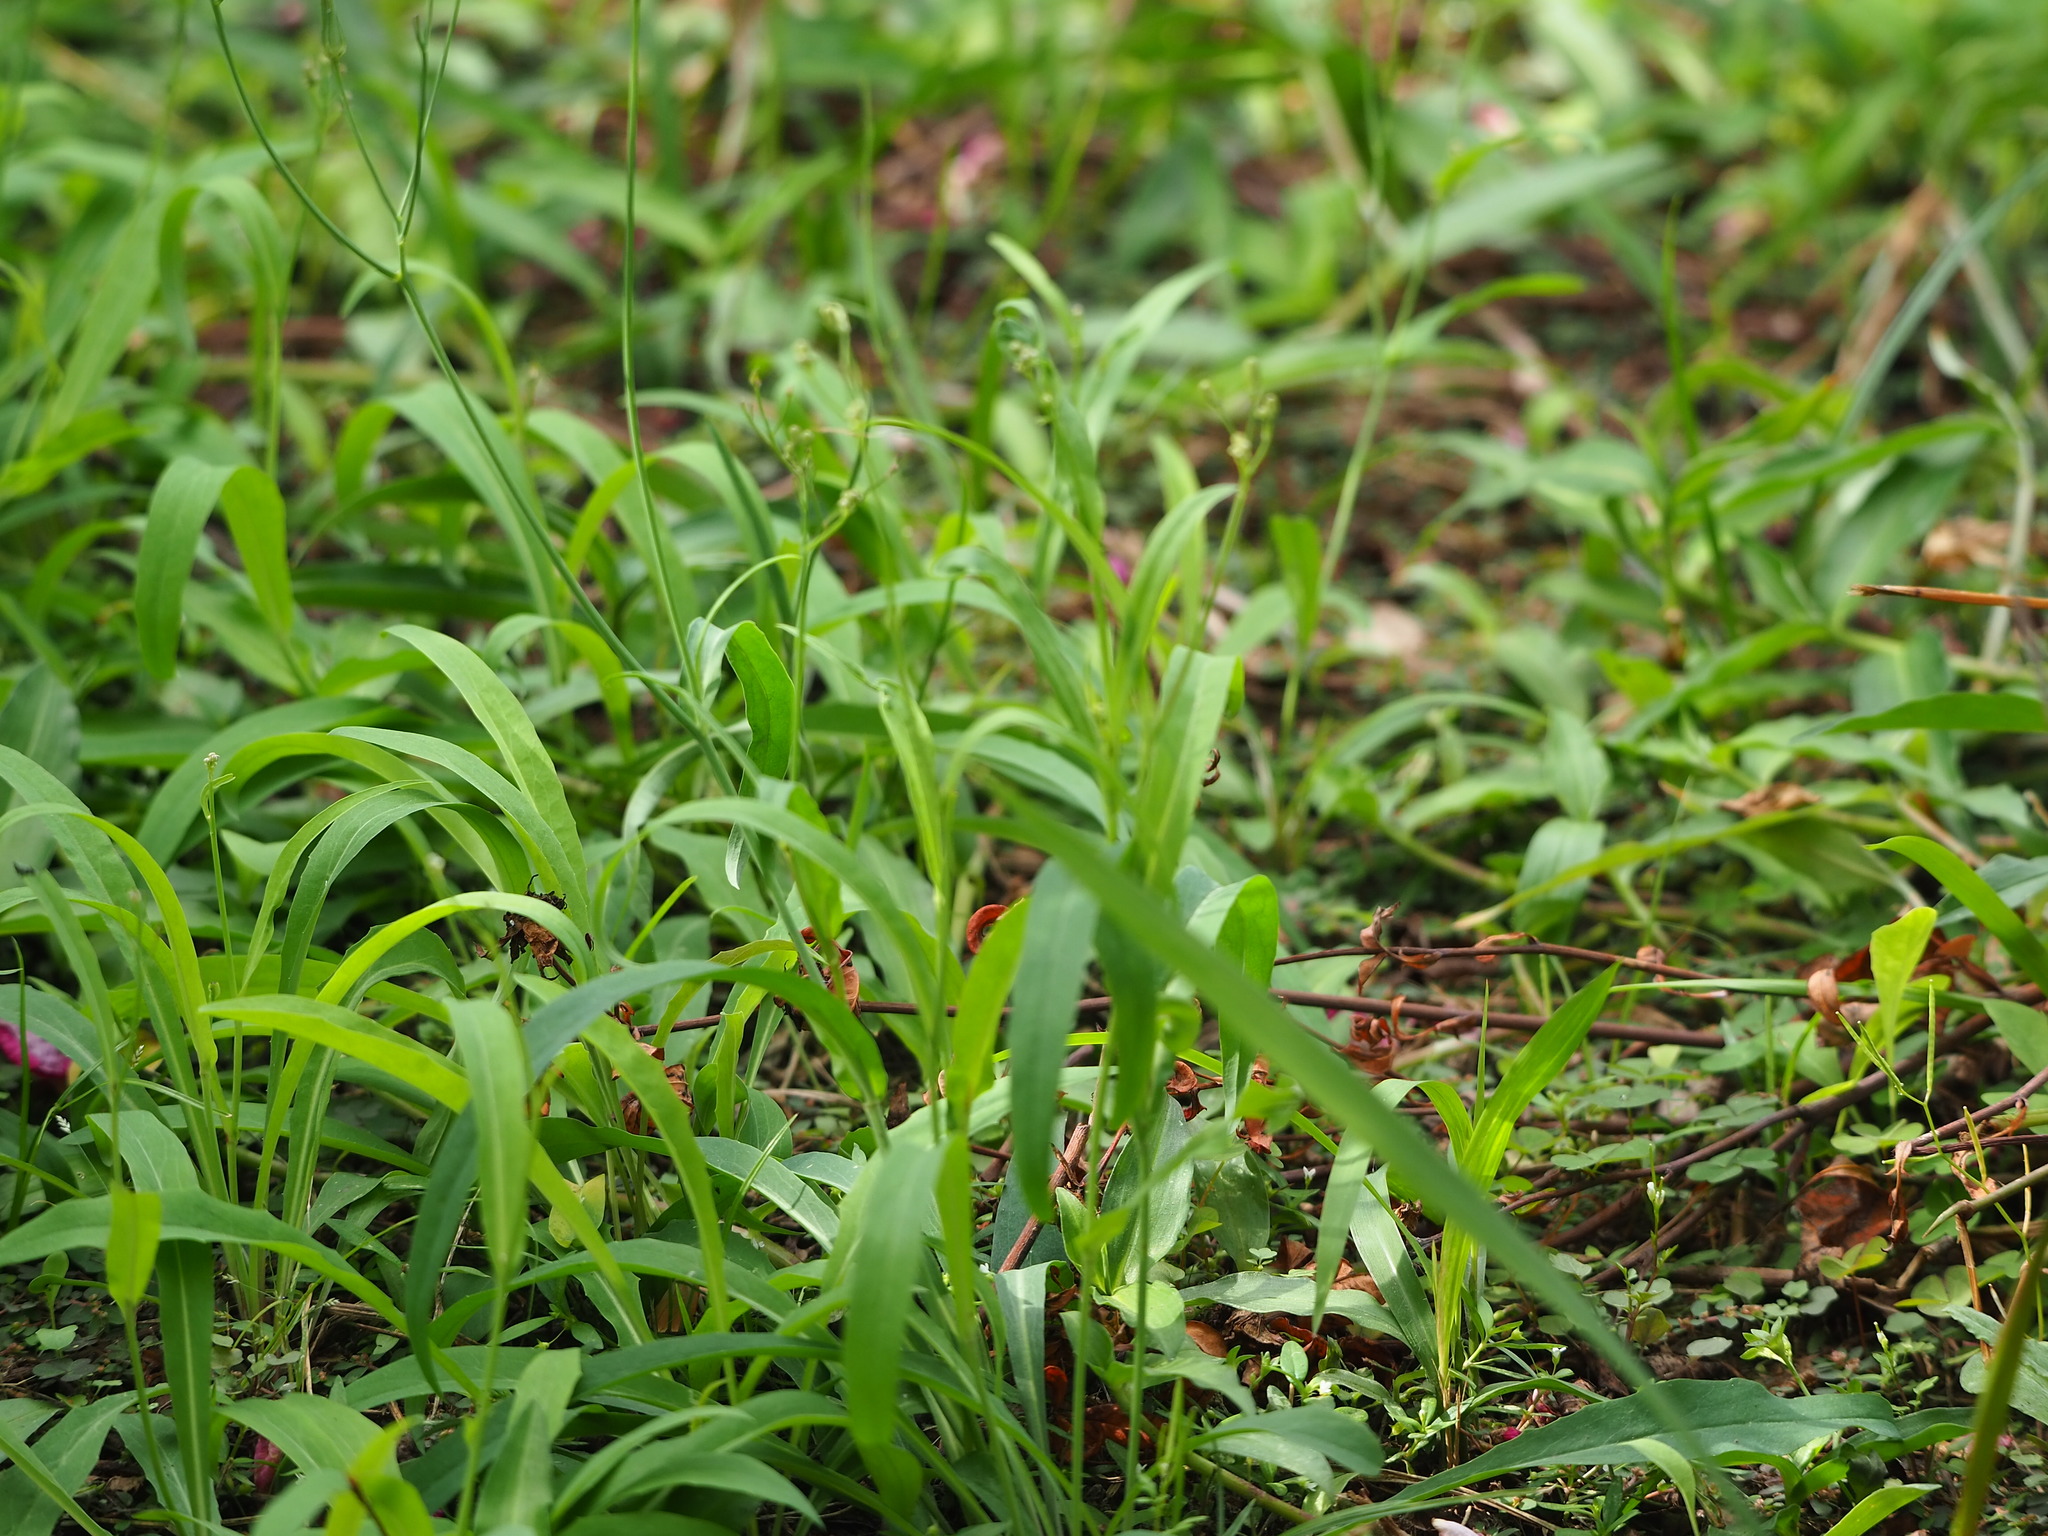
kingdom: Plantae
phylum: Tracheophyta
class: Magnoliopsida
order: Asterales
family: Asteraceae
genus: Ixeris
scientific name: Ixeris chinensis
